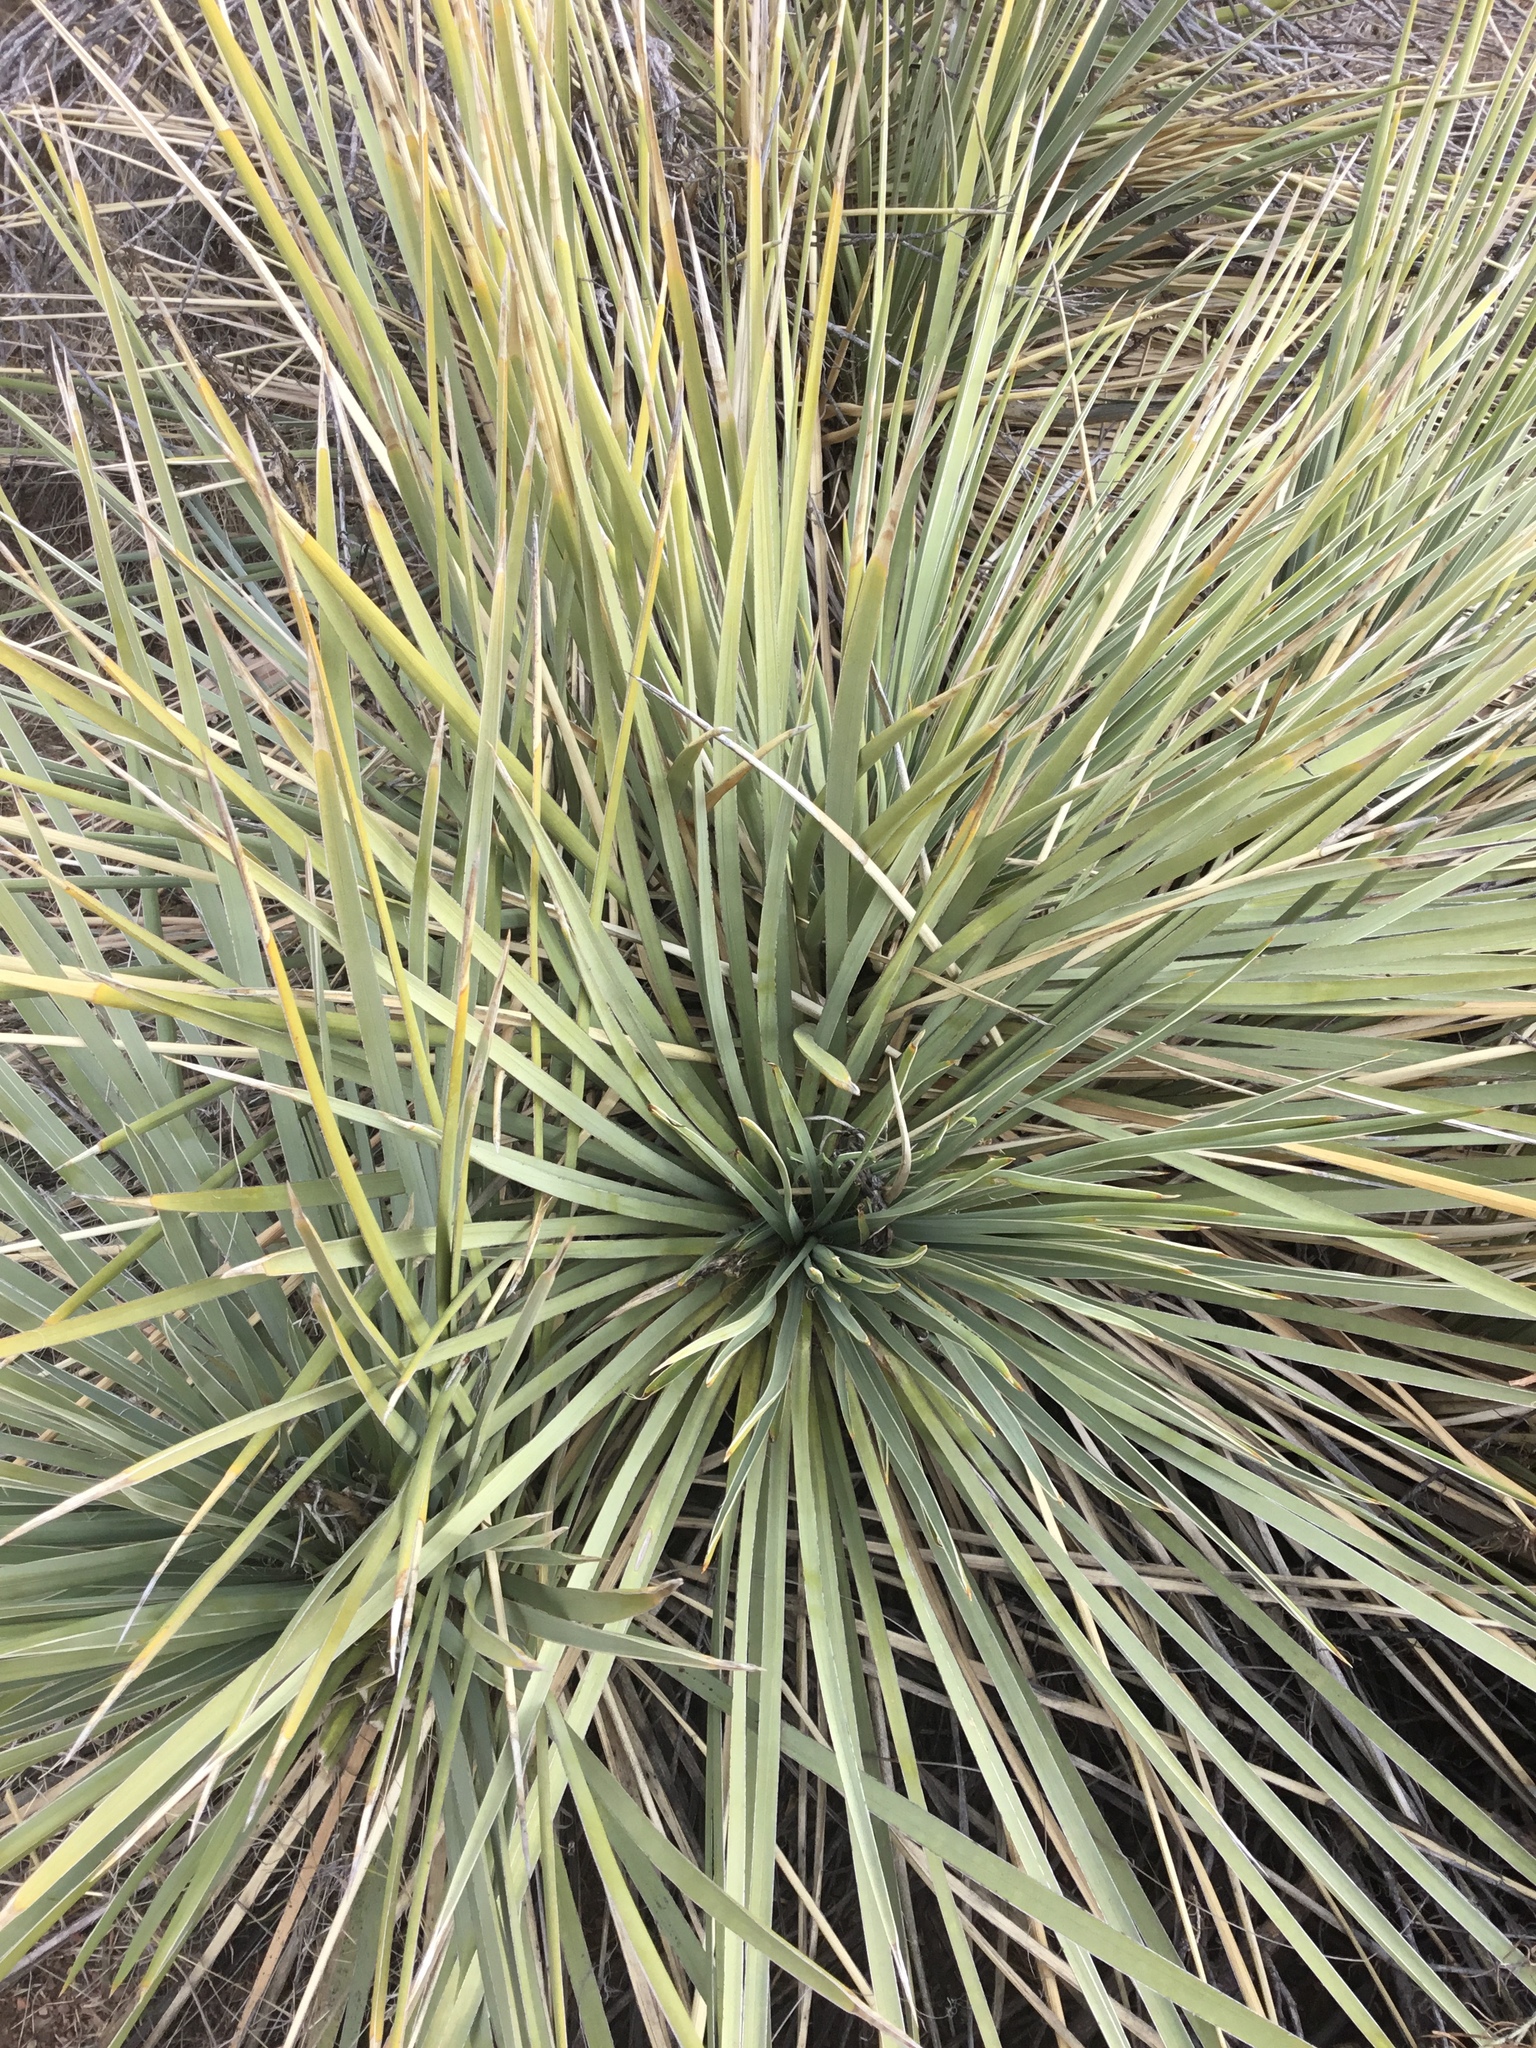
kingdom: Plantae
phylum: Tracheophyta
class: Liliopsida
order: Asparagales
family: Asparagaceae
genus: Yucca
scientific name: Yucca glauca
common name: Great plains yucca
